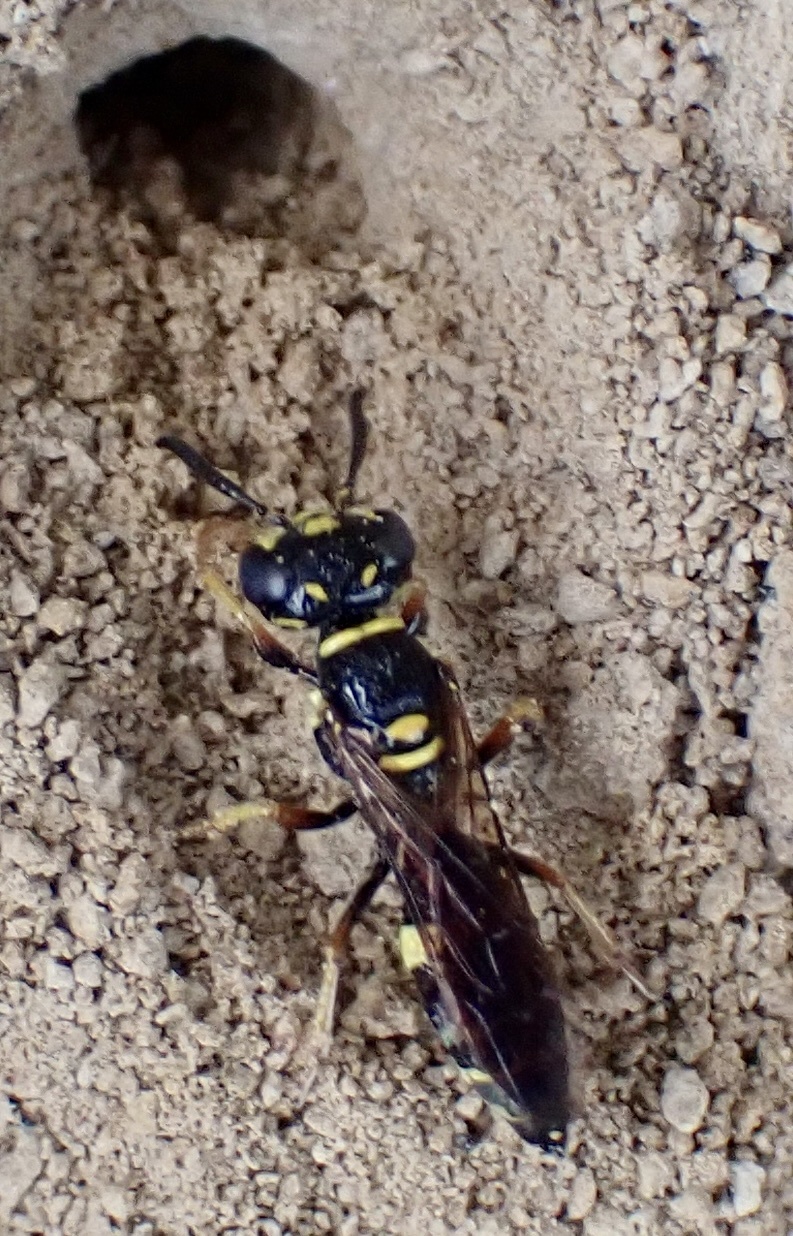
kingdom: Animalia
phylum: Arthropoda
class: Insecta
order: Hymenoptera
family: Crabronidae
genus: Philanthus
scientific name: Philanthus gibbosus
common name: Humped beewolf
